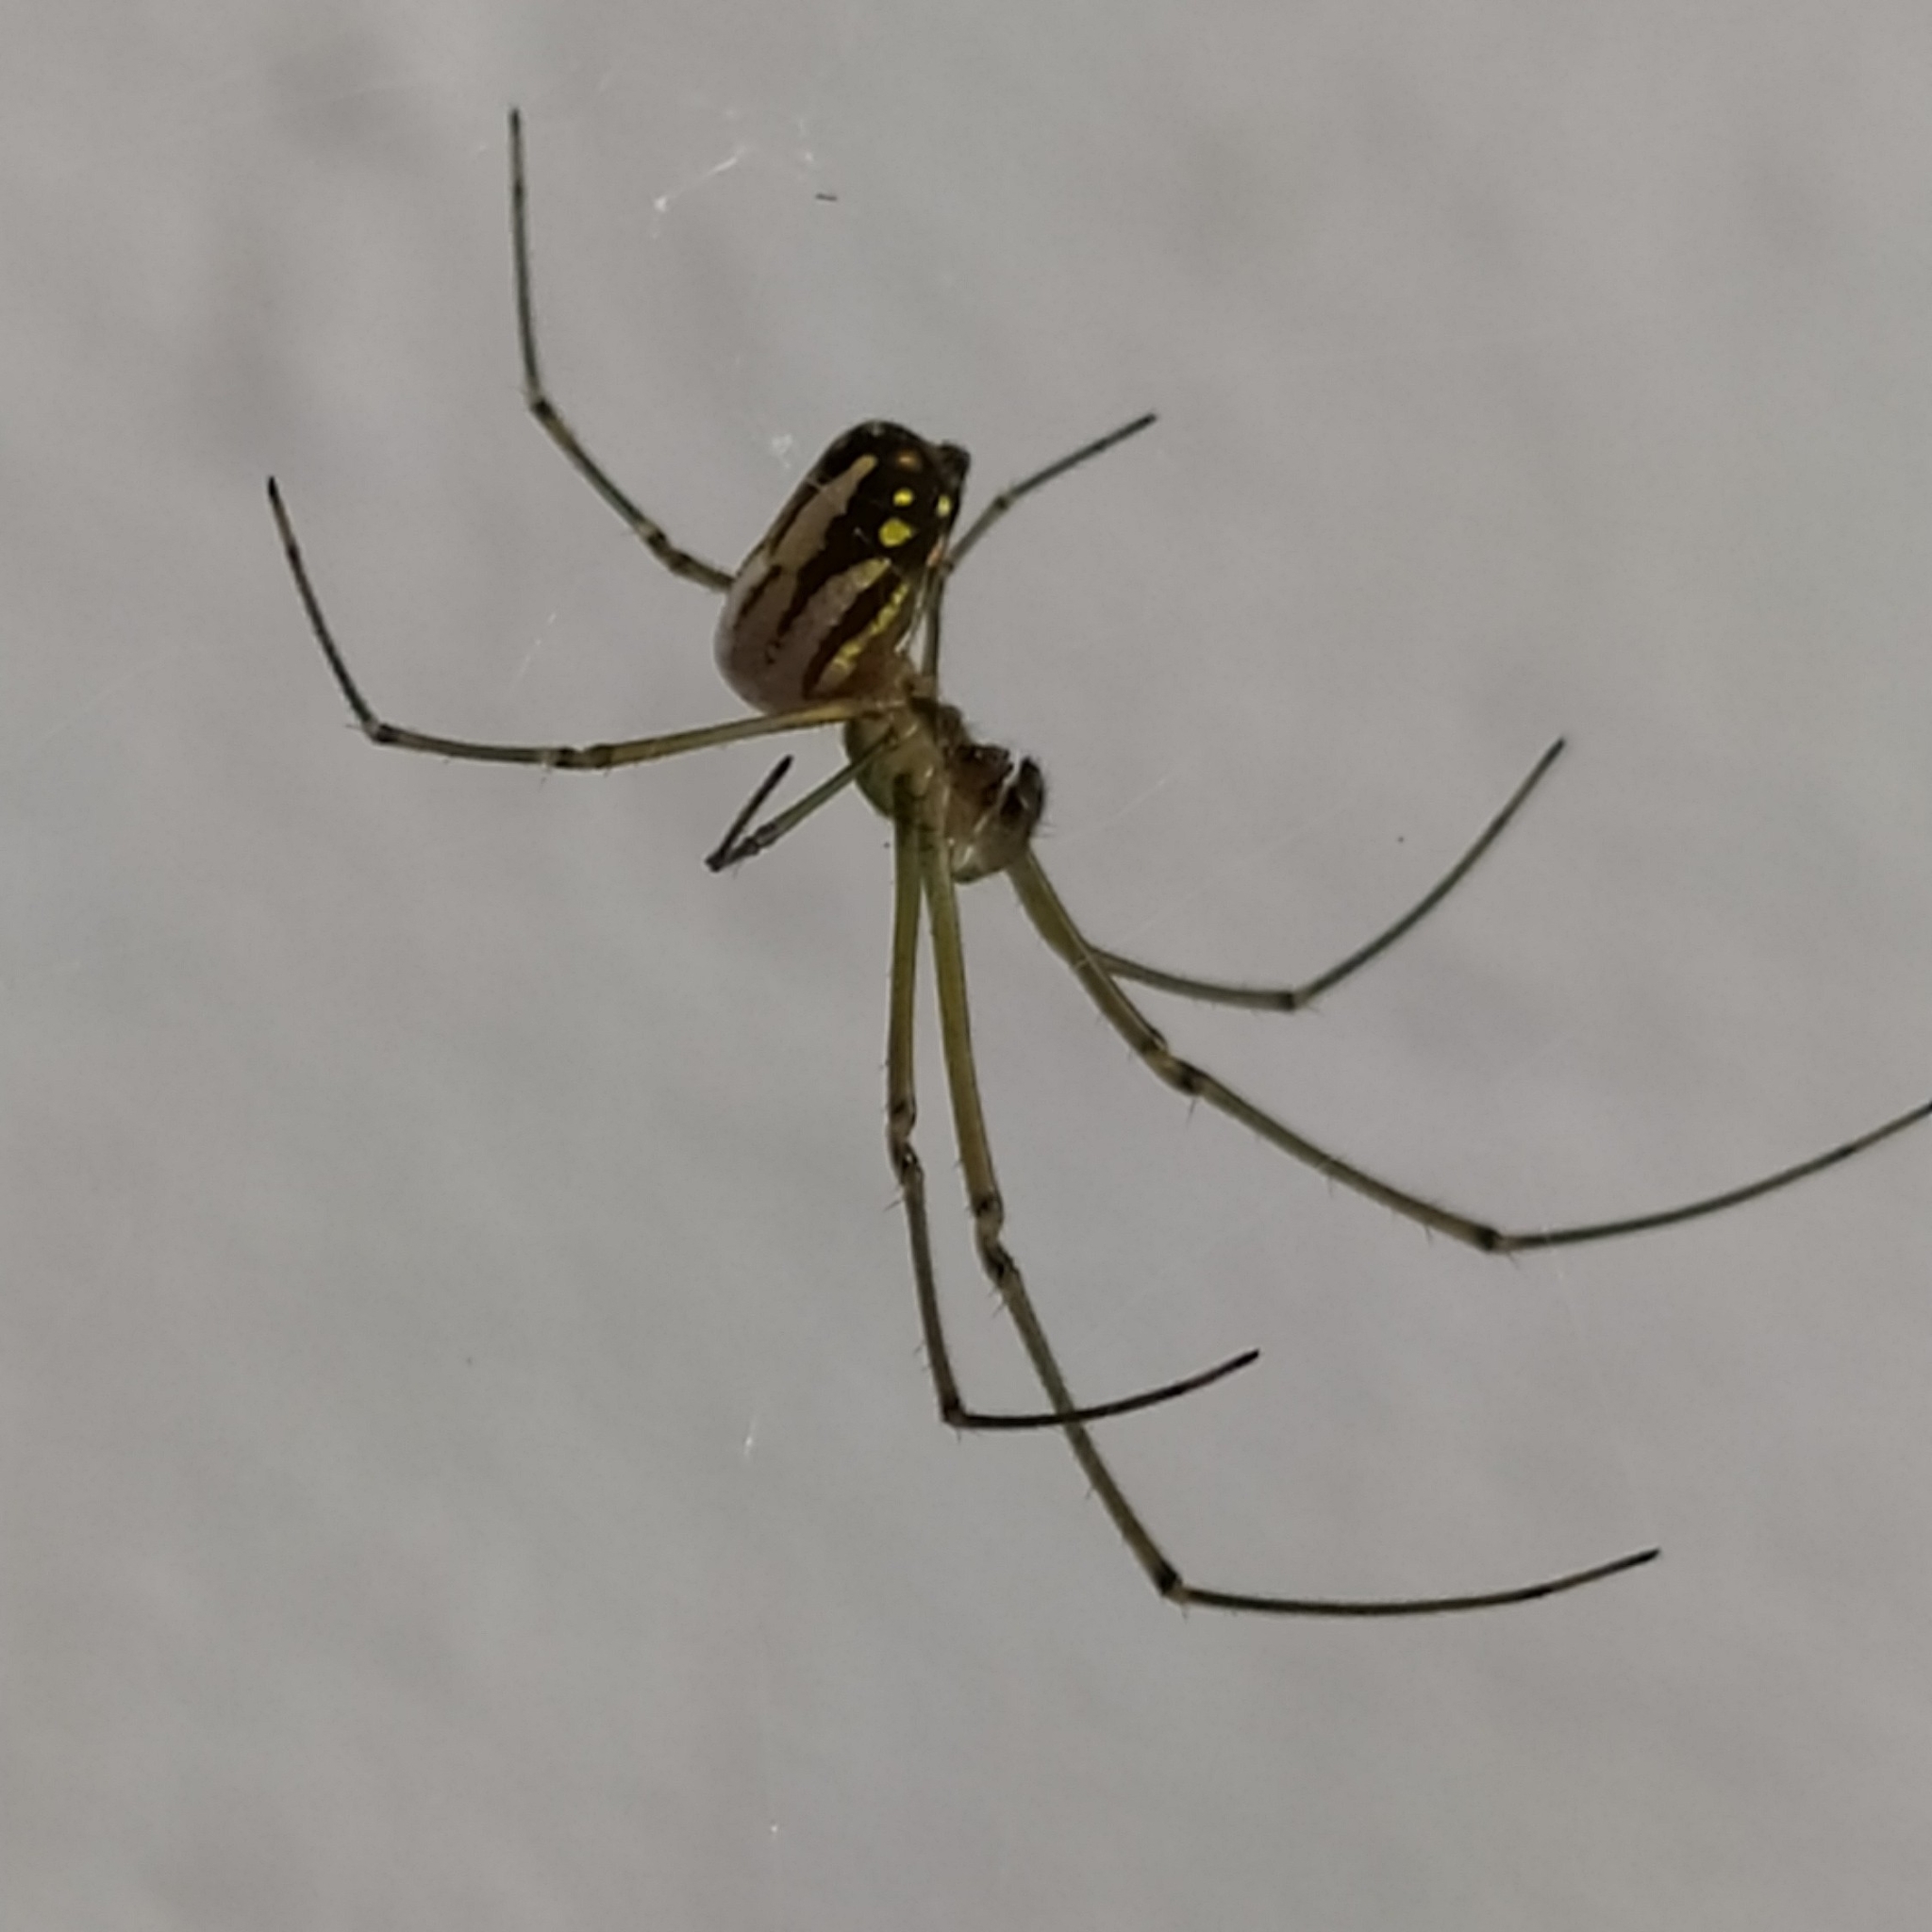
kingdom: Animalia
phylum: Arthropoda
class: Arachnida
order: Araneae
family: Tetragnathidae
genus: Leucauge
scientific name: Leucauge argyra
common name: Longjawed orb weavers
